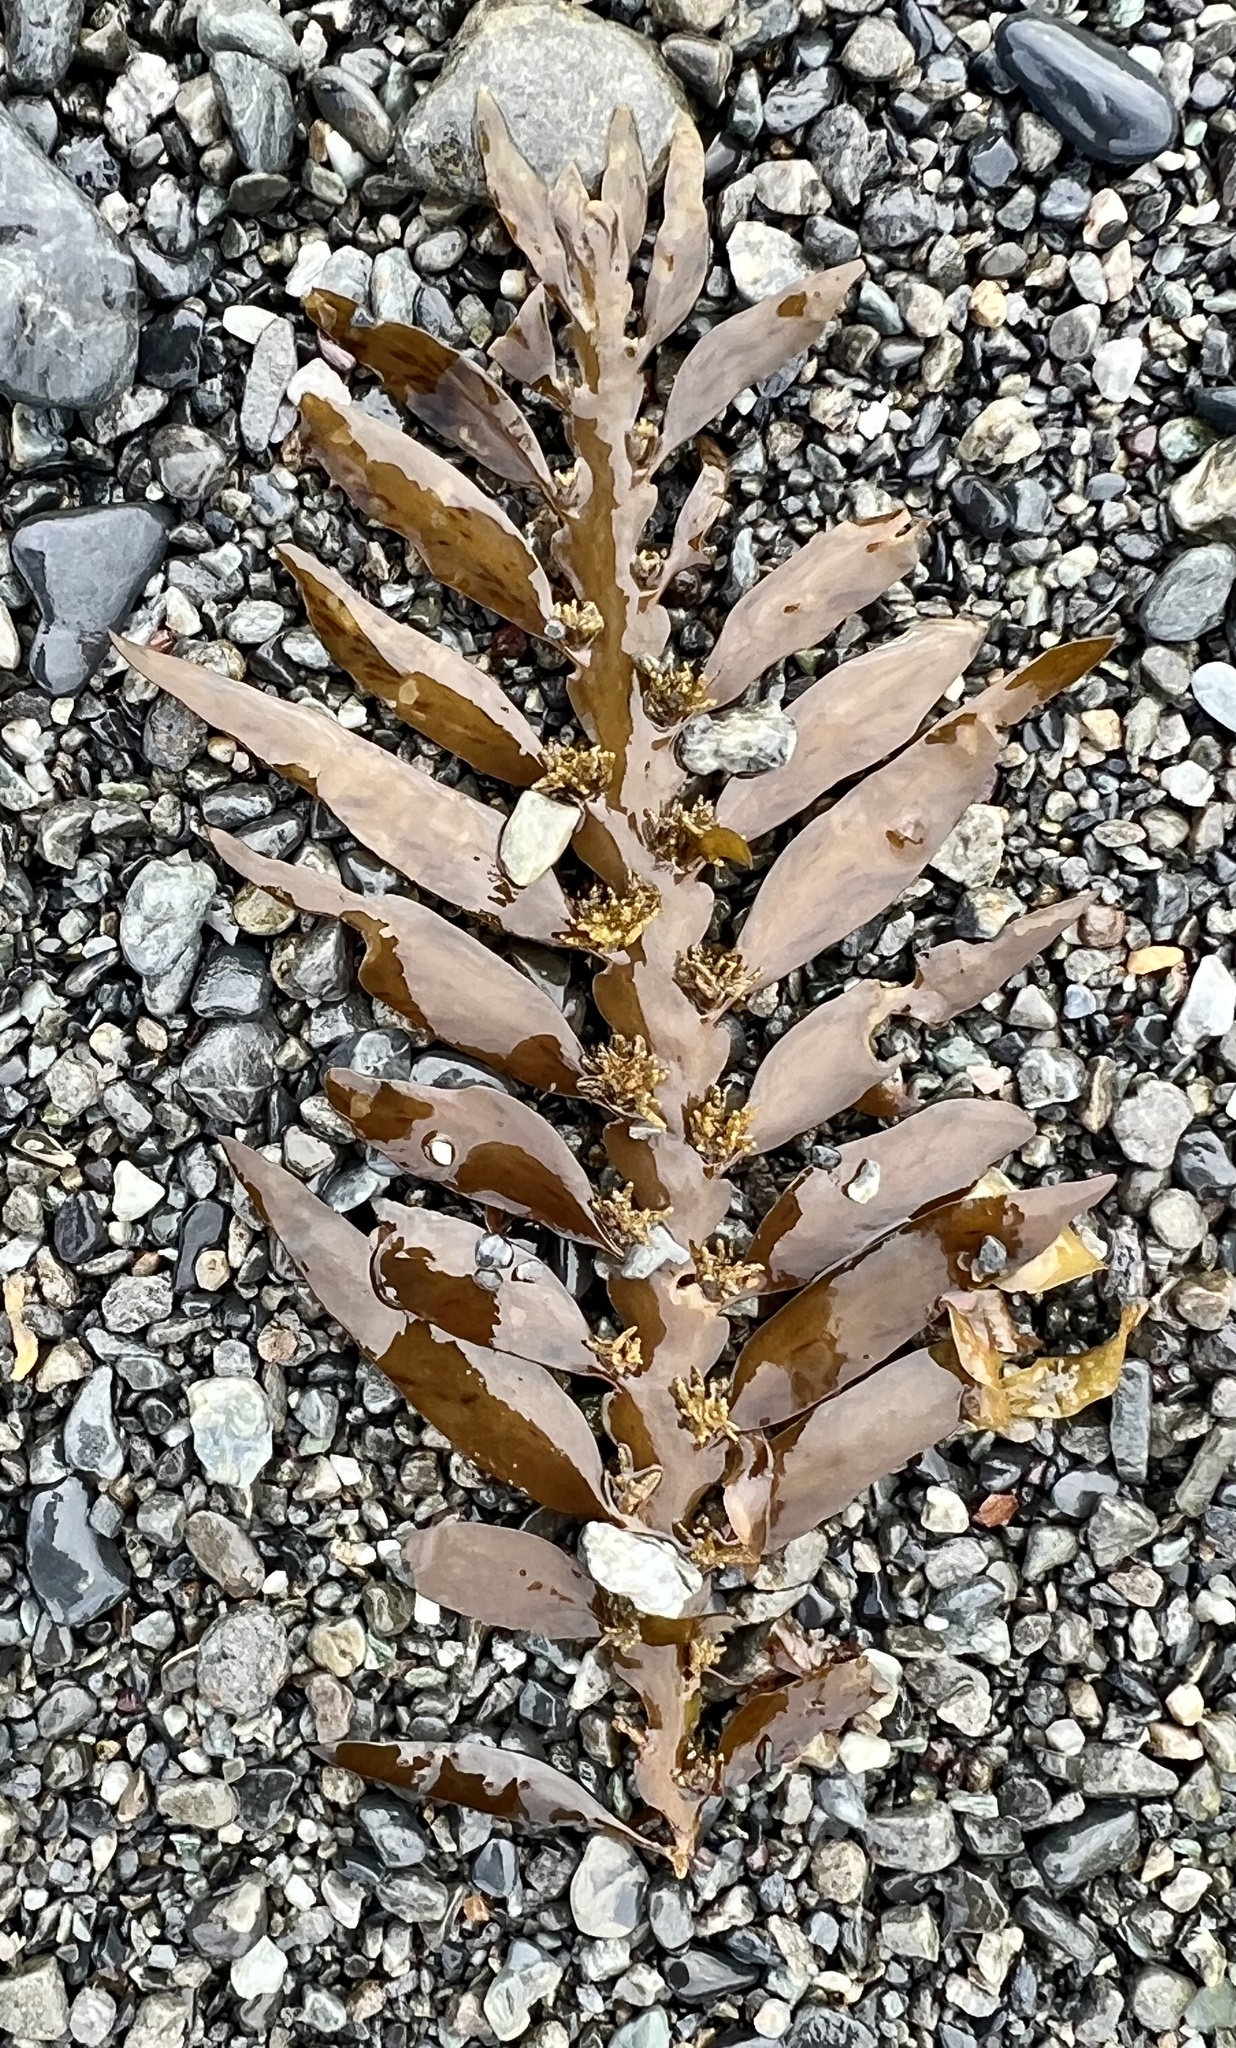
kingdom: Chromista
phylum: Ochrophyta
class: Phaeophyceae
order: Fucales
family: Sargassaceae
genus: Carpophyllum
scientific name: Carpophyllum maschalocarpum
